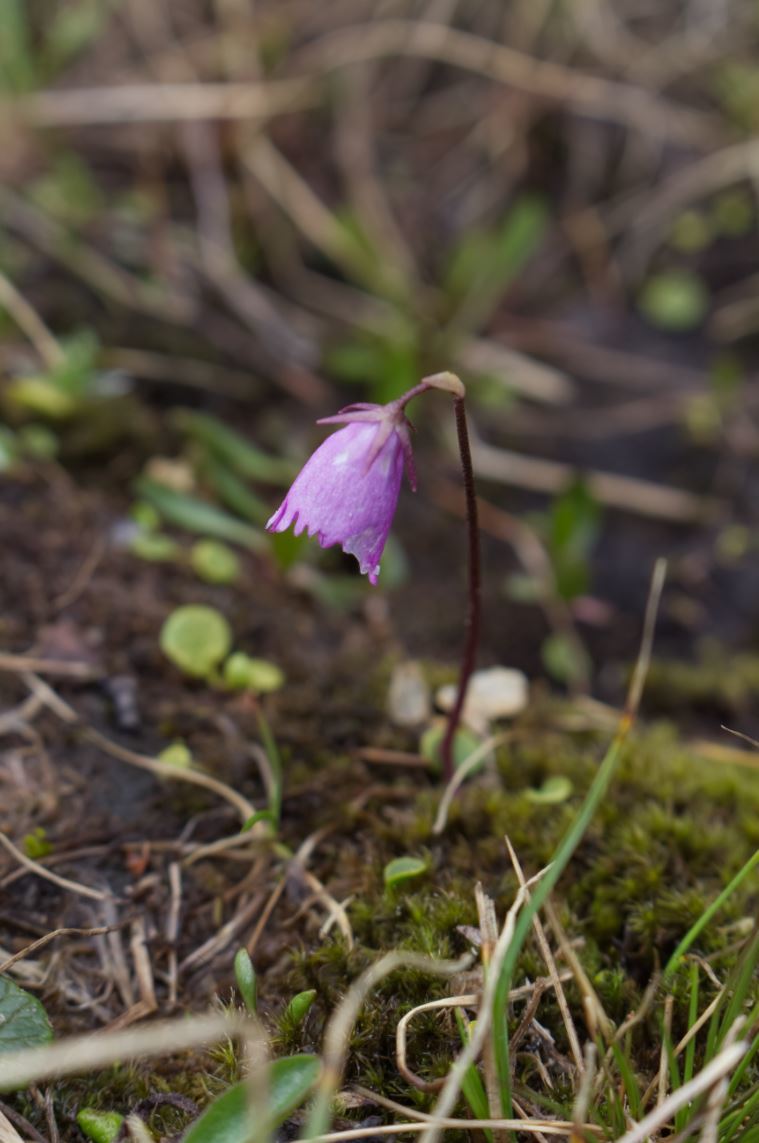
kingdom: Plantae
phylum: Tracheophyta
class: Magnoliopsida
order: Ericales
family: Primulaceae
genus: Soldanella
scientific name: Soldanella pusilla
